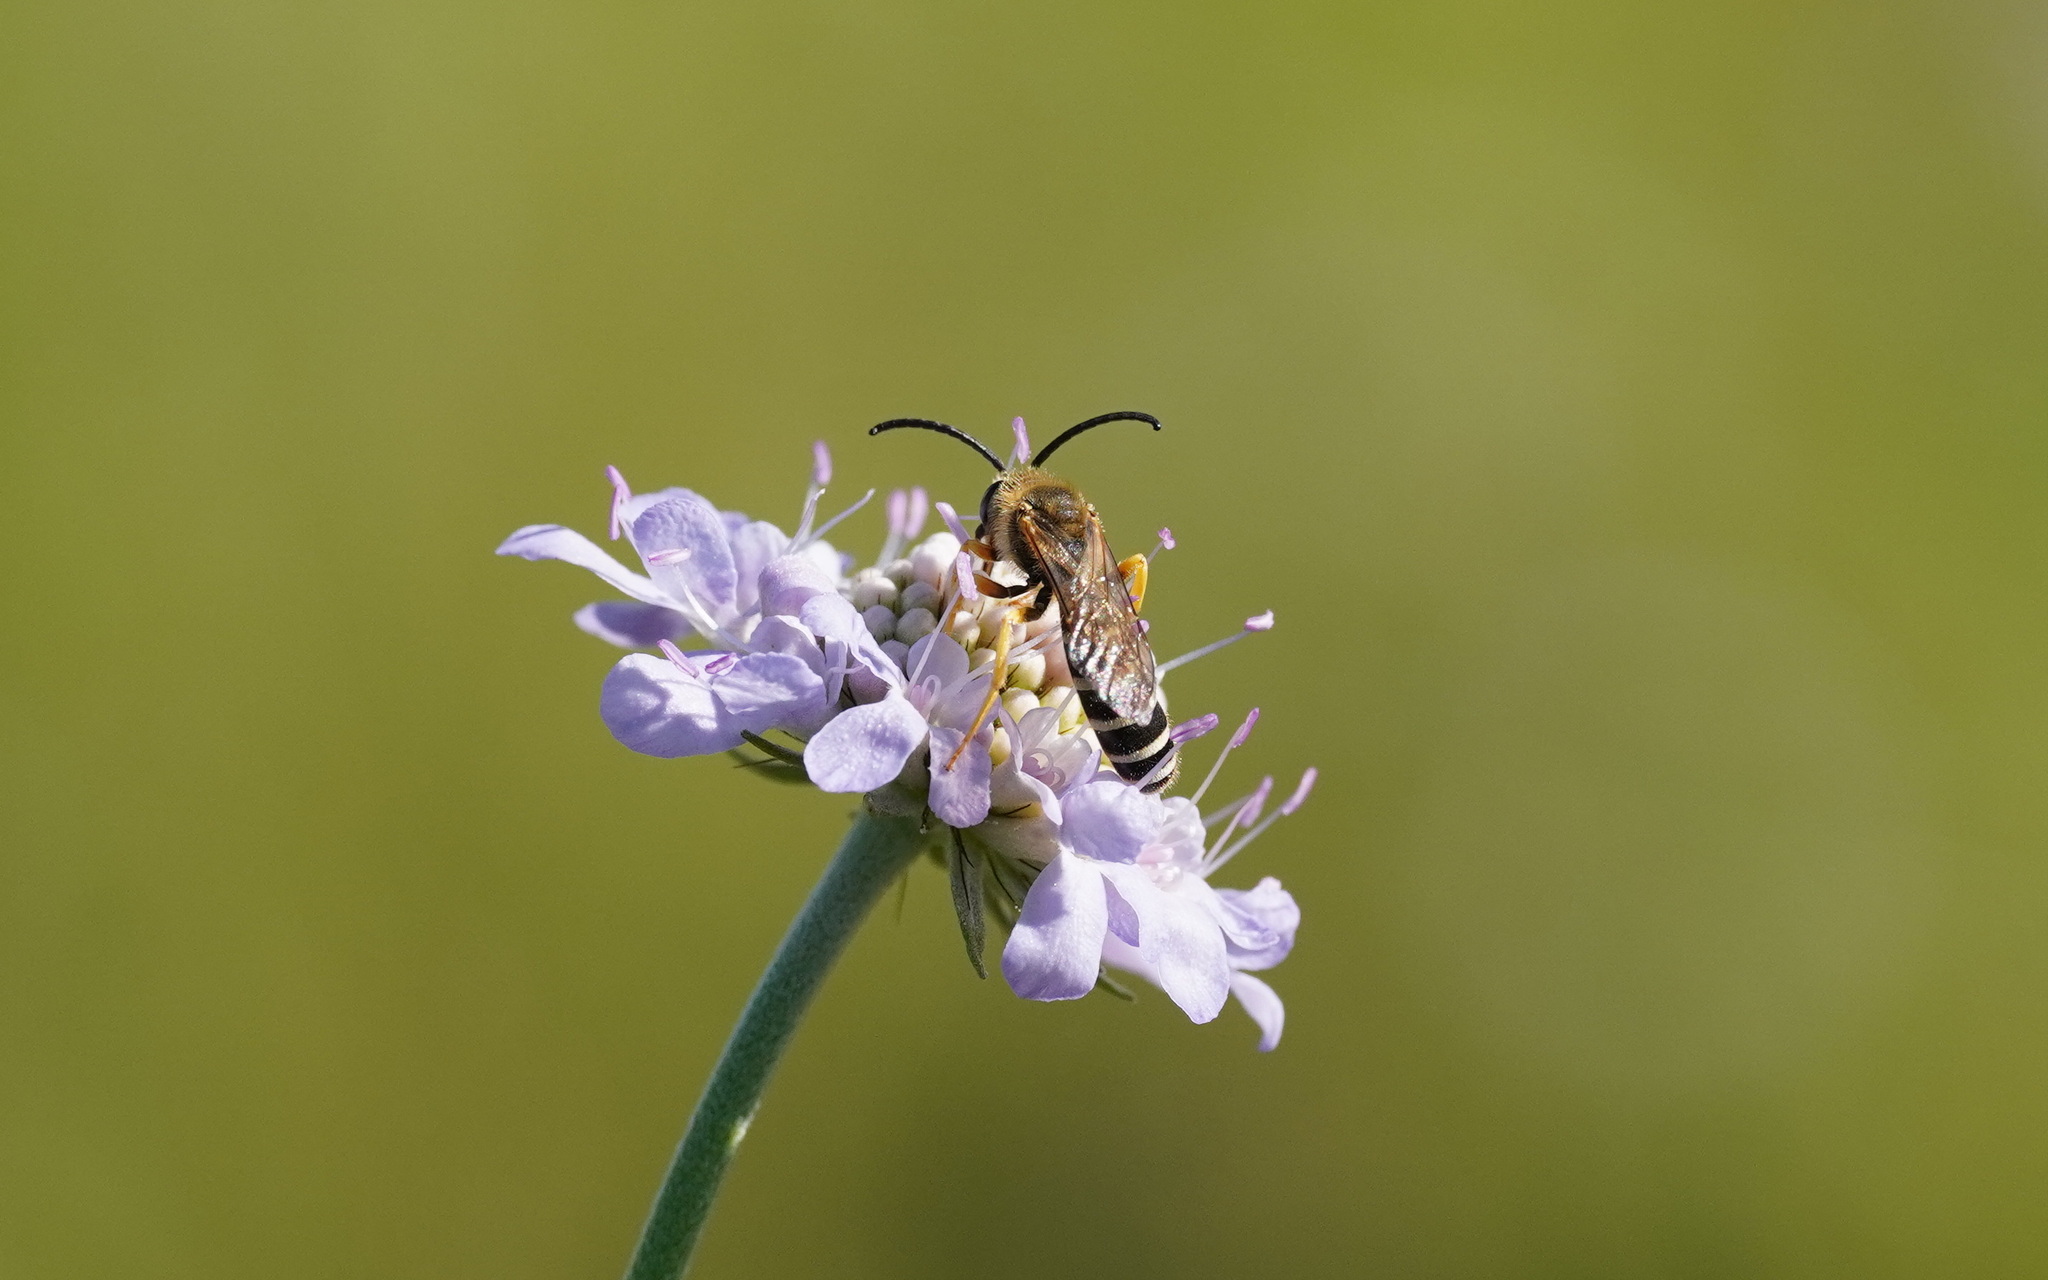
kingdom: Animalia
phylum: Arthropoda
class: Insecta
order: Hymenoptera
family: Halictidae
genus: Halictus
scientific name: Halictus scabiosae
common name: Great banded furrow bee
